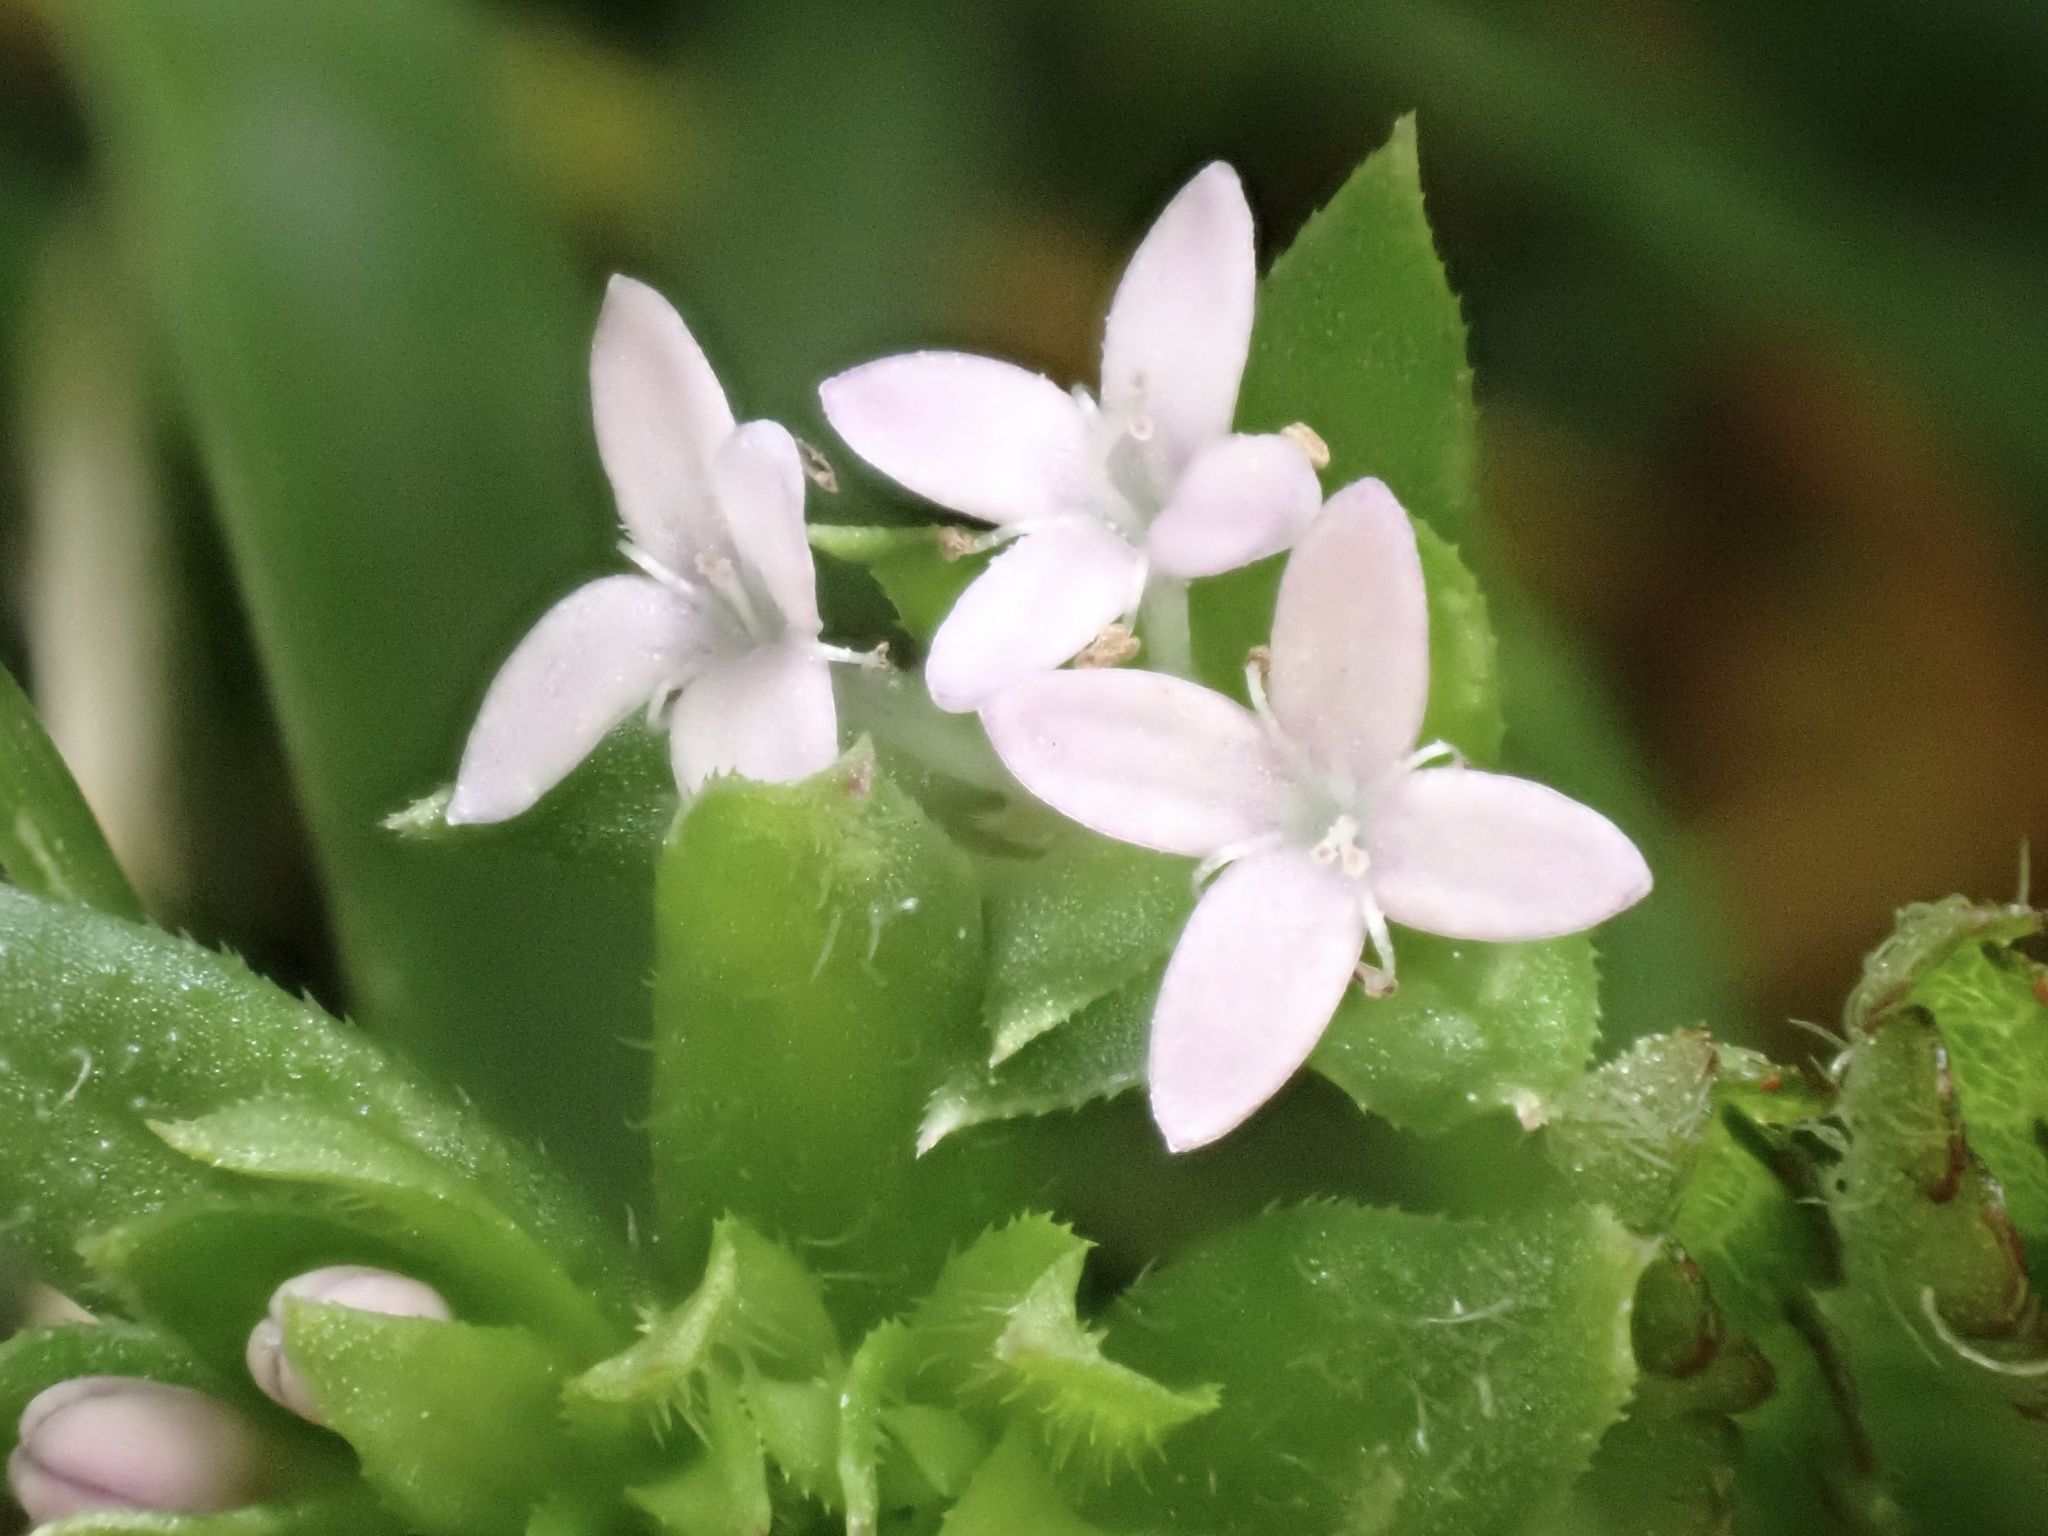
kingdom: Plantae
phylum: Tracheophyta
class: Magnoliopsida
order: Gentianales
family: Rubiaceae
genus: Sherardia
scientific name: Sherardia arvensis
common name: Field madder
